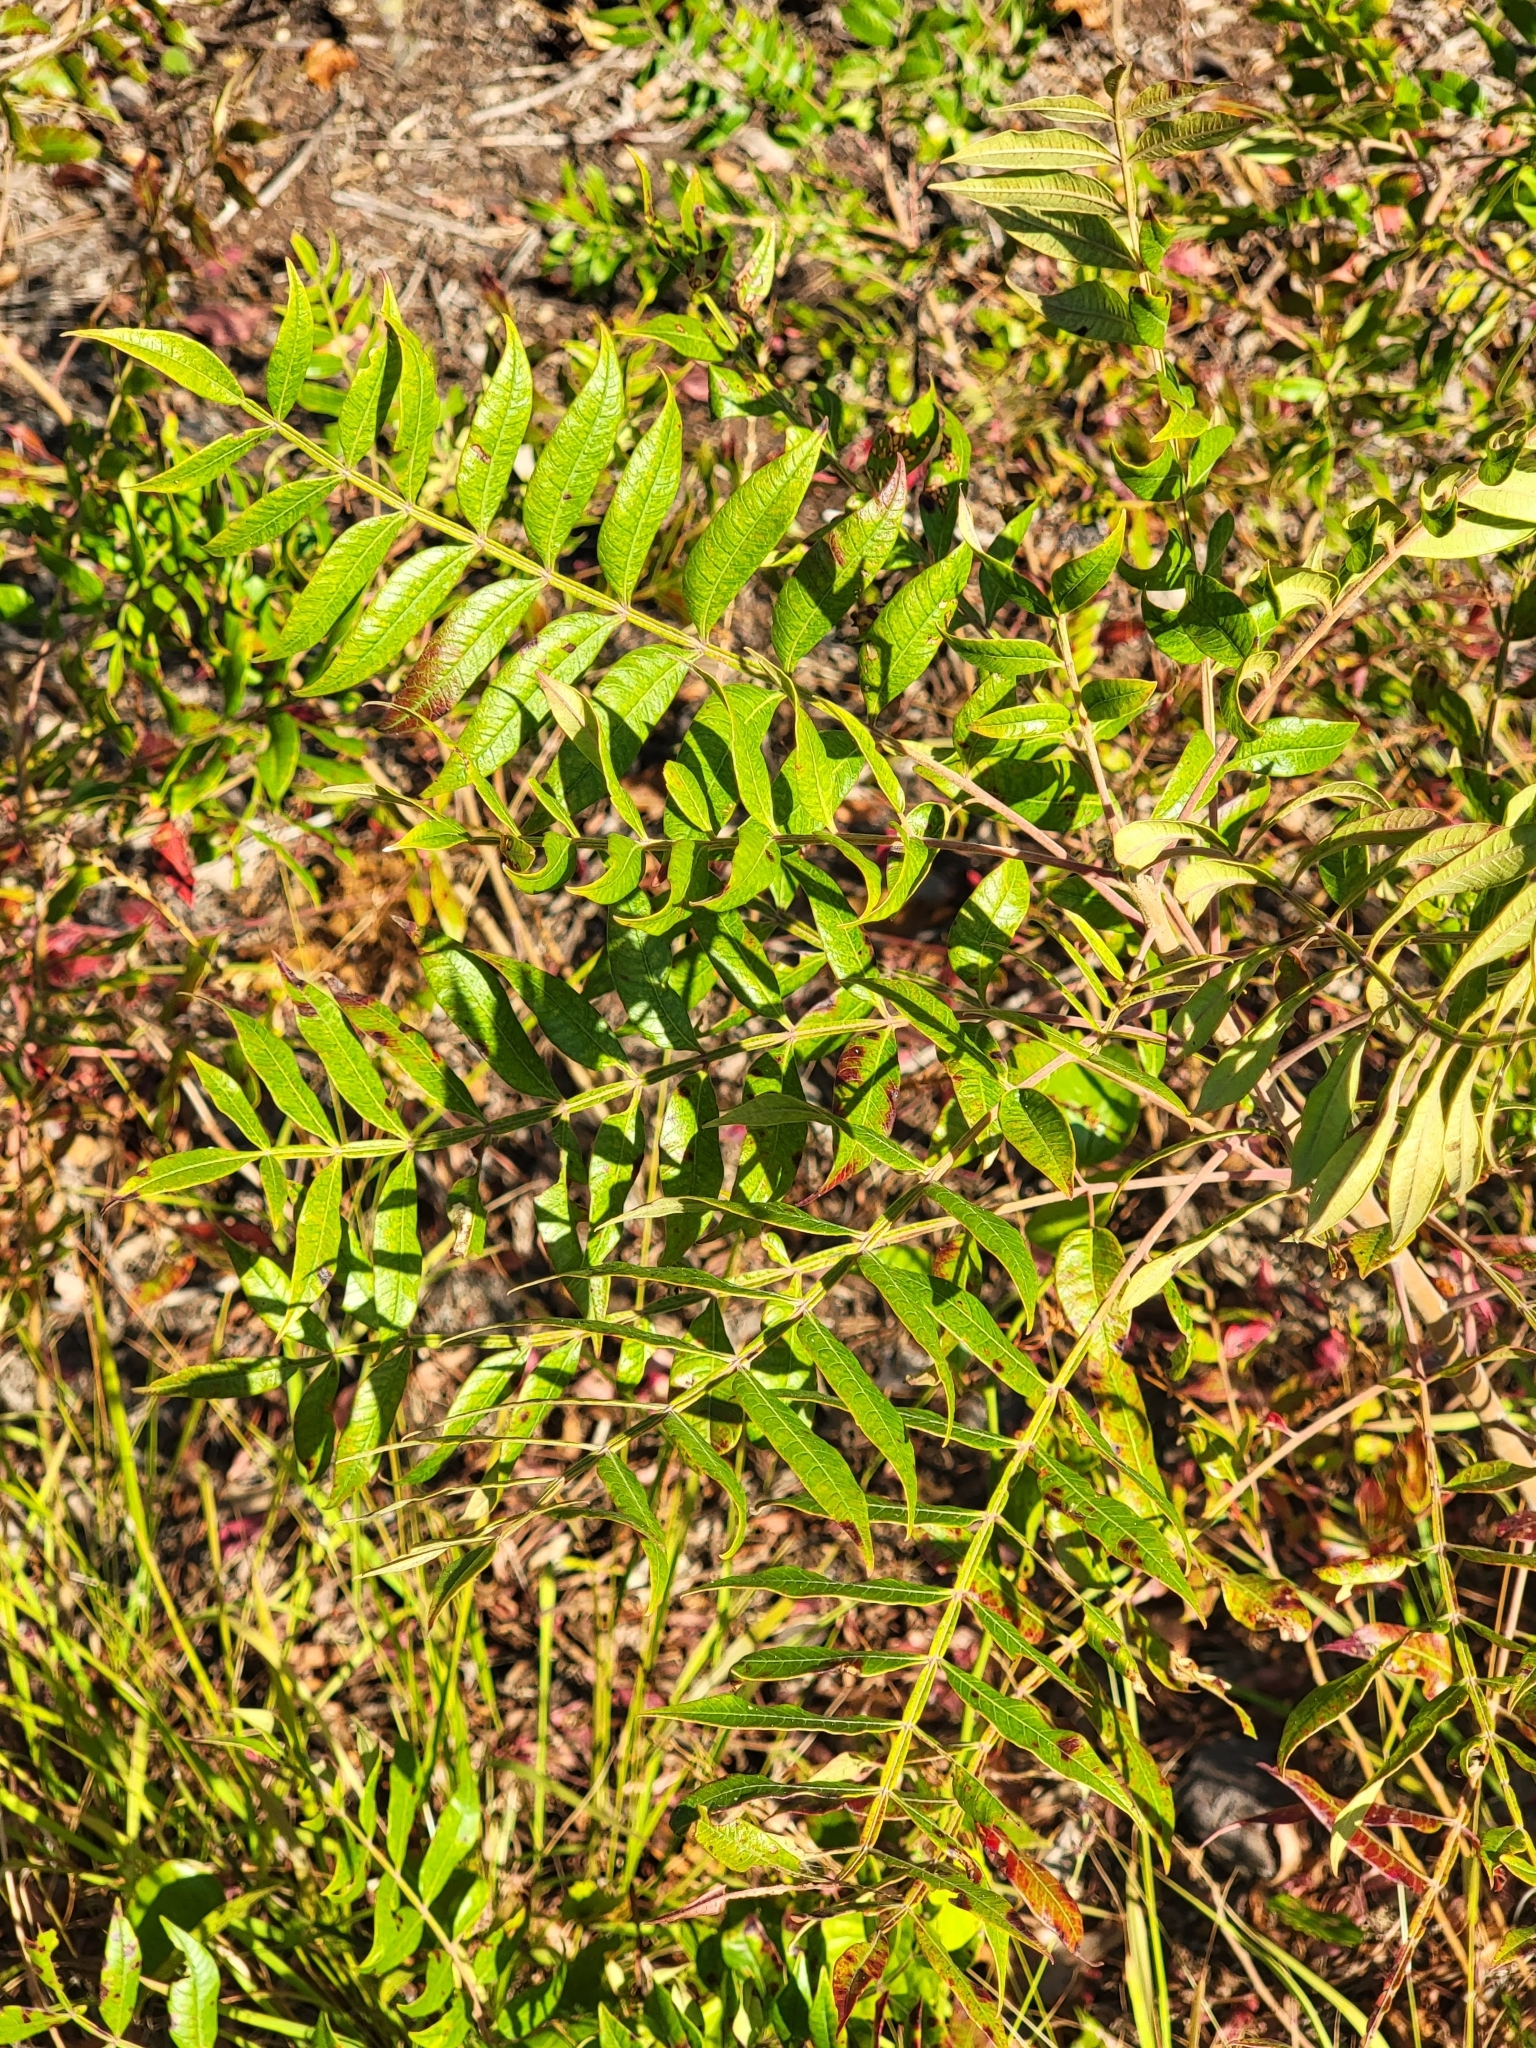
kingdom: Plantae
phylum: Tracheophyta
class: Magnoliopsida
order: Sapindales
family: Anacardiaceae
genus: Rhus
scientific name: Rhus copallina
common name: Shining sumac
